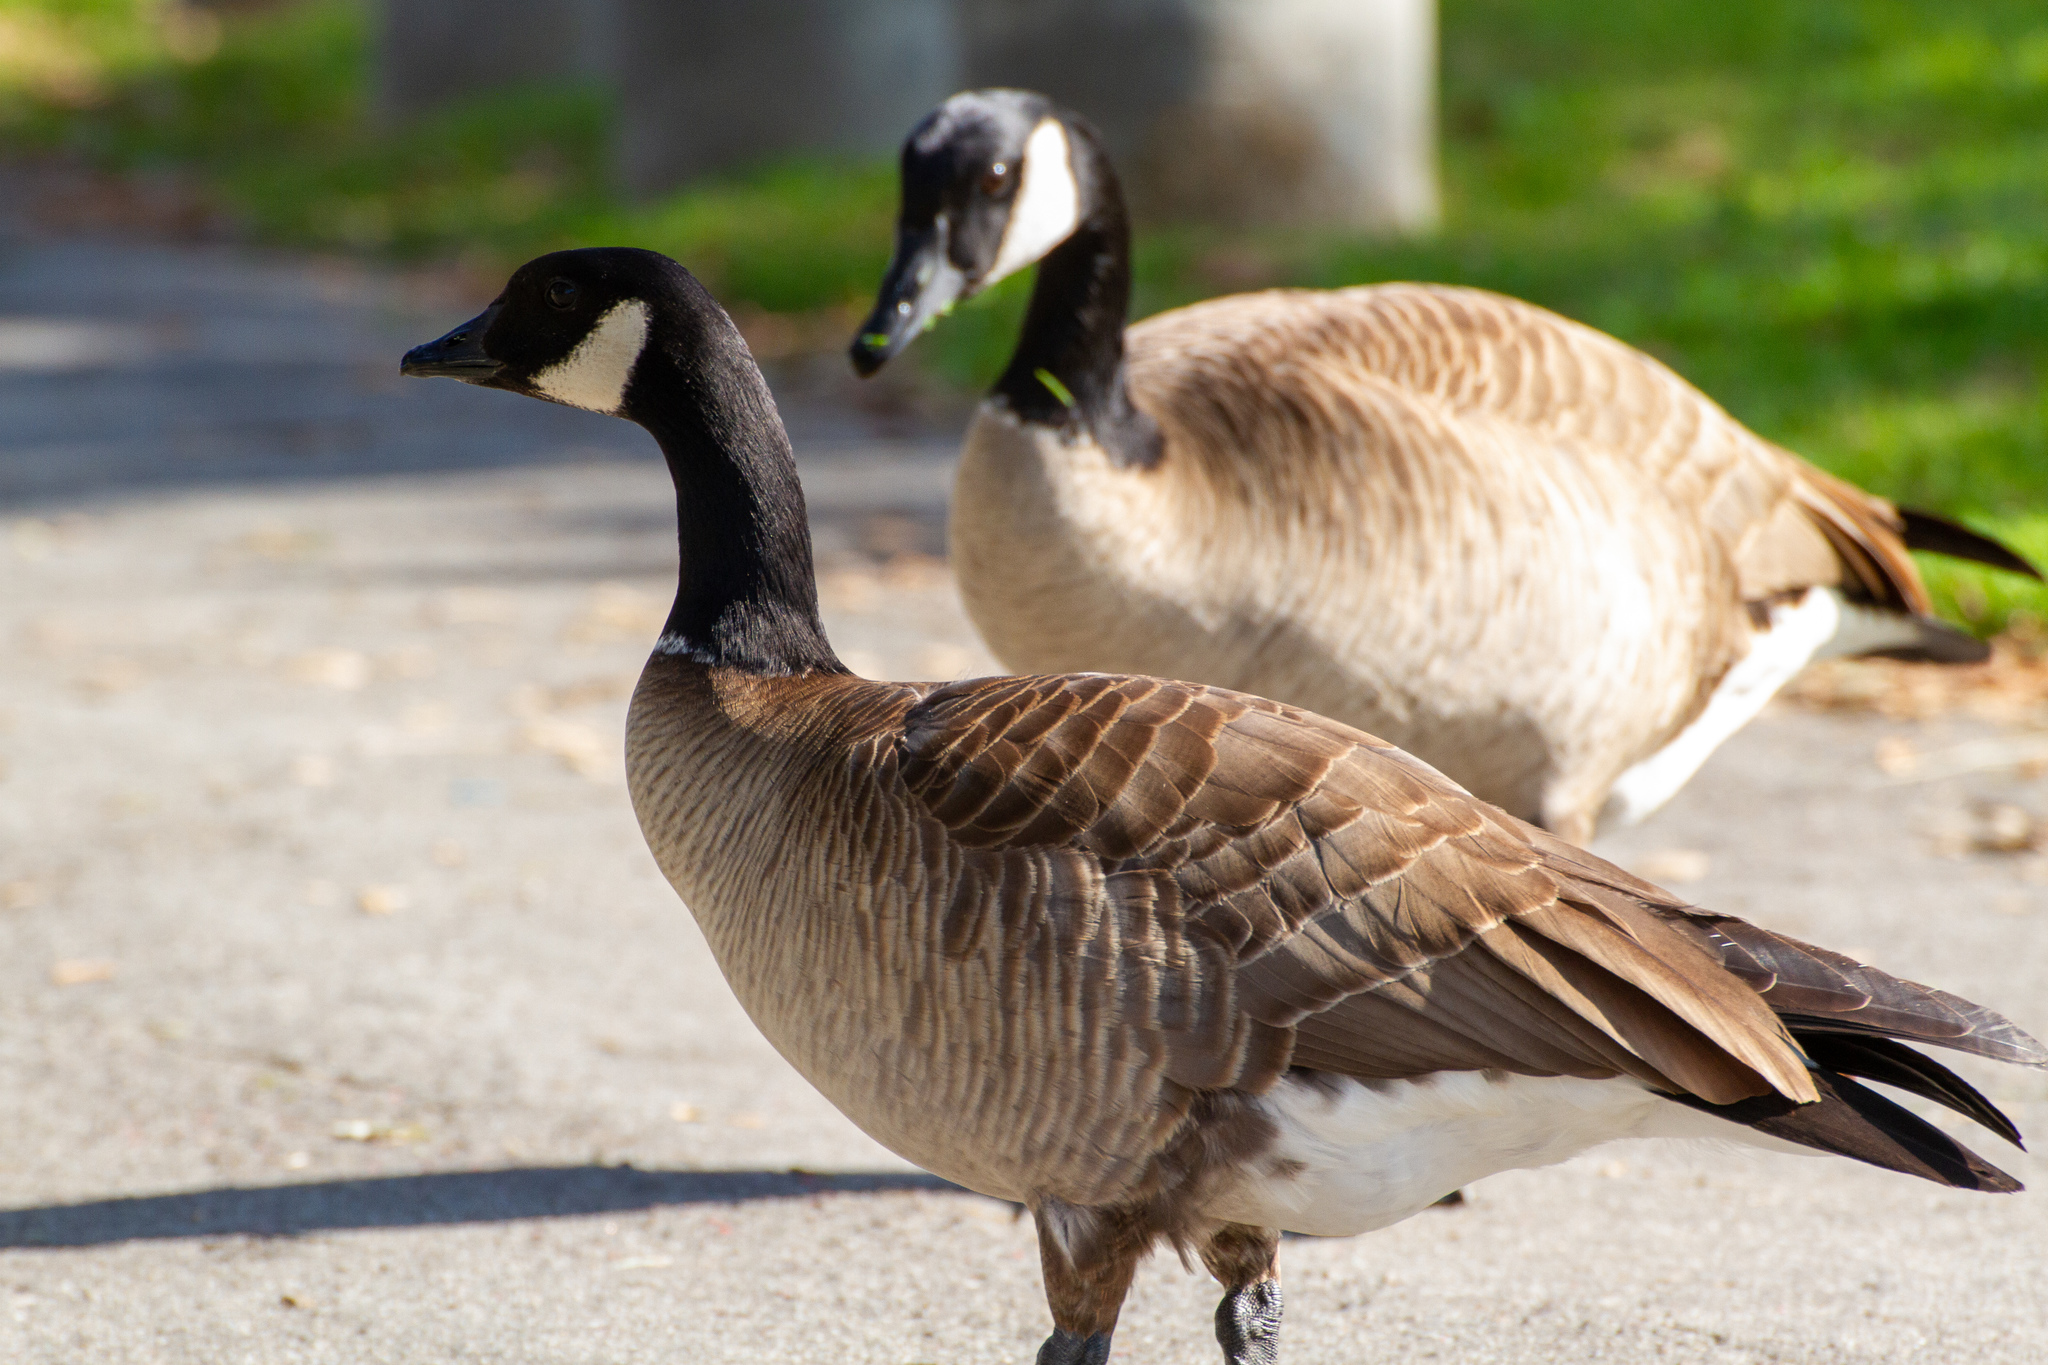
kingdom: Animalia
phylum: Chordata
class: Aves
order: Anseriformes
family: Anatidae
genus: Branta
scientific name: Branta hutchinsii
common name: Cackling goose
